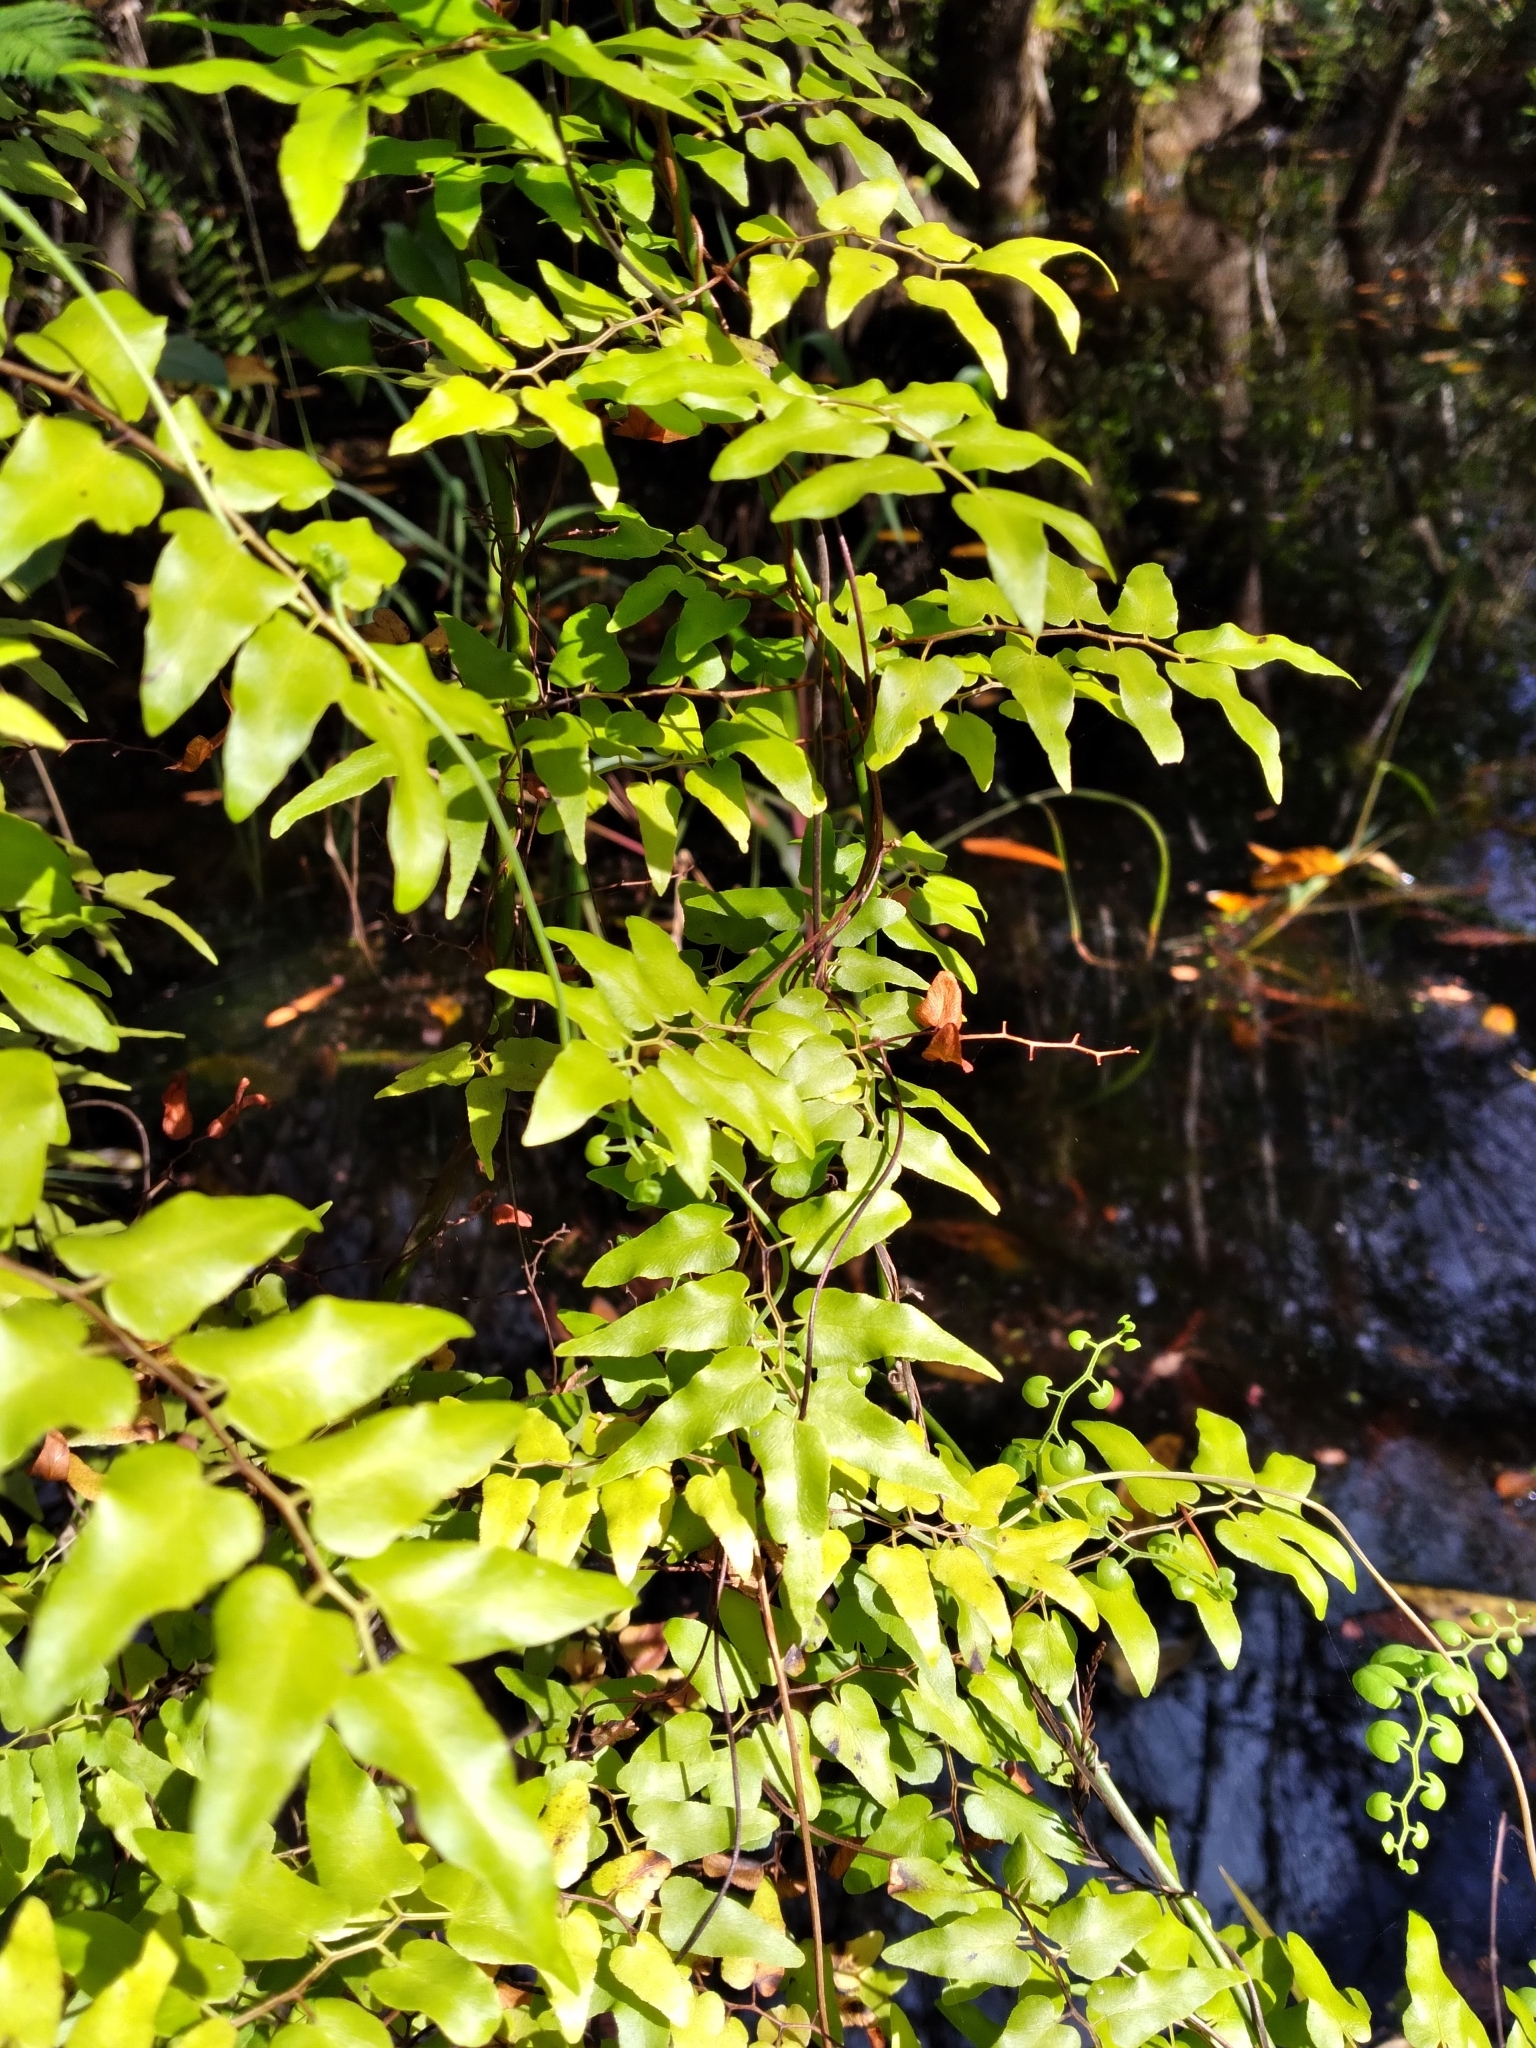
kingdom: Plantae
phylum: Tracheophyta
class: Polypodiopsida
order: Schizaeales
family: Lygodiaceae
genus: Lygodium
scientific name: Lygodium microphyllum
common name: Small-leaf climbing fern
